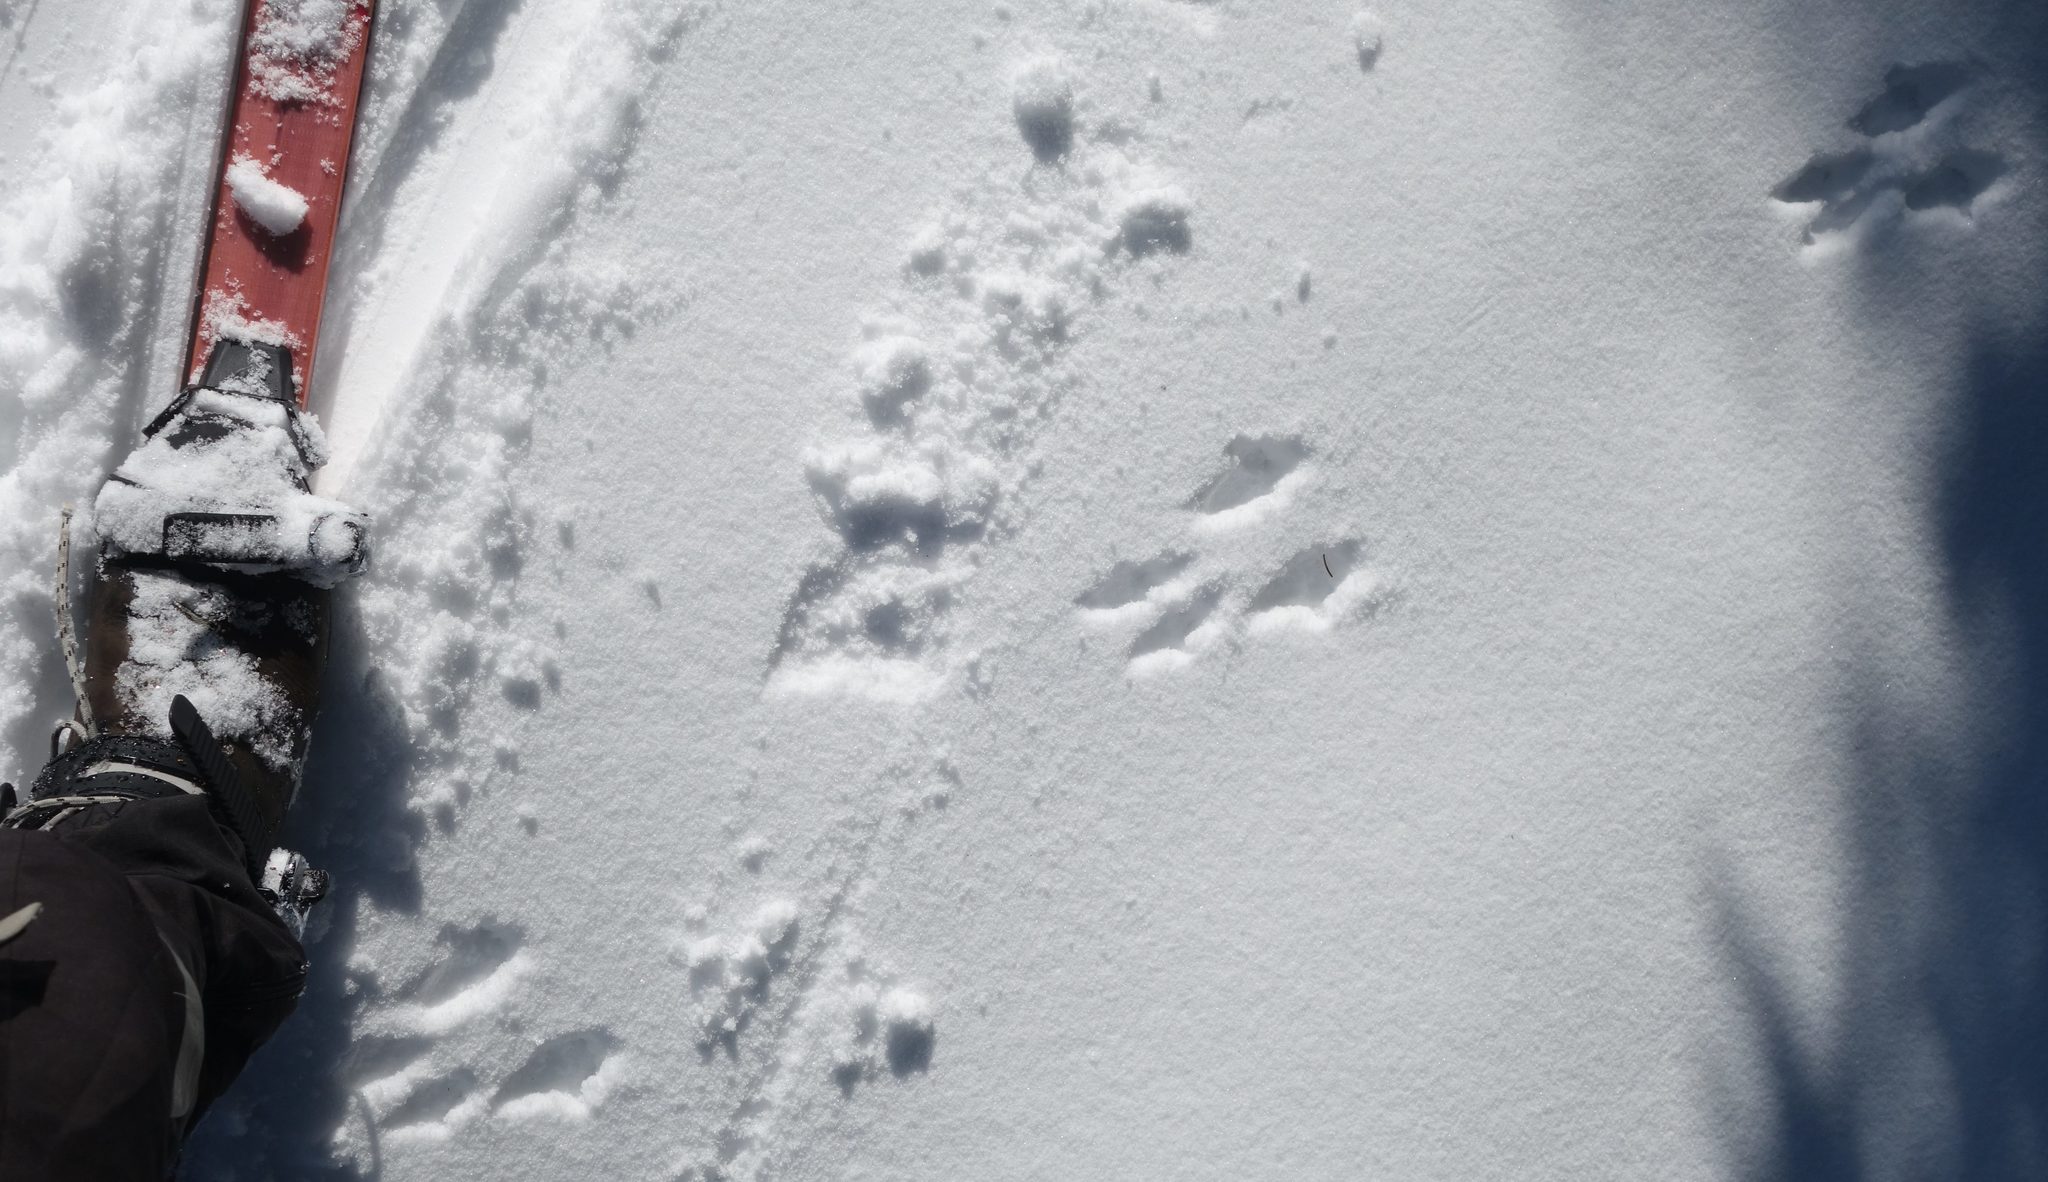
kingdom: Animalia
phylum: Chordata
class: Mammalia
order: Rodentia
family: Sciuridae
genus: Sciurus
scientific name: Sciurus vulgaris
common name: Eurasian red squirrel
